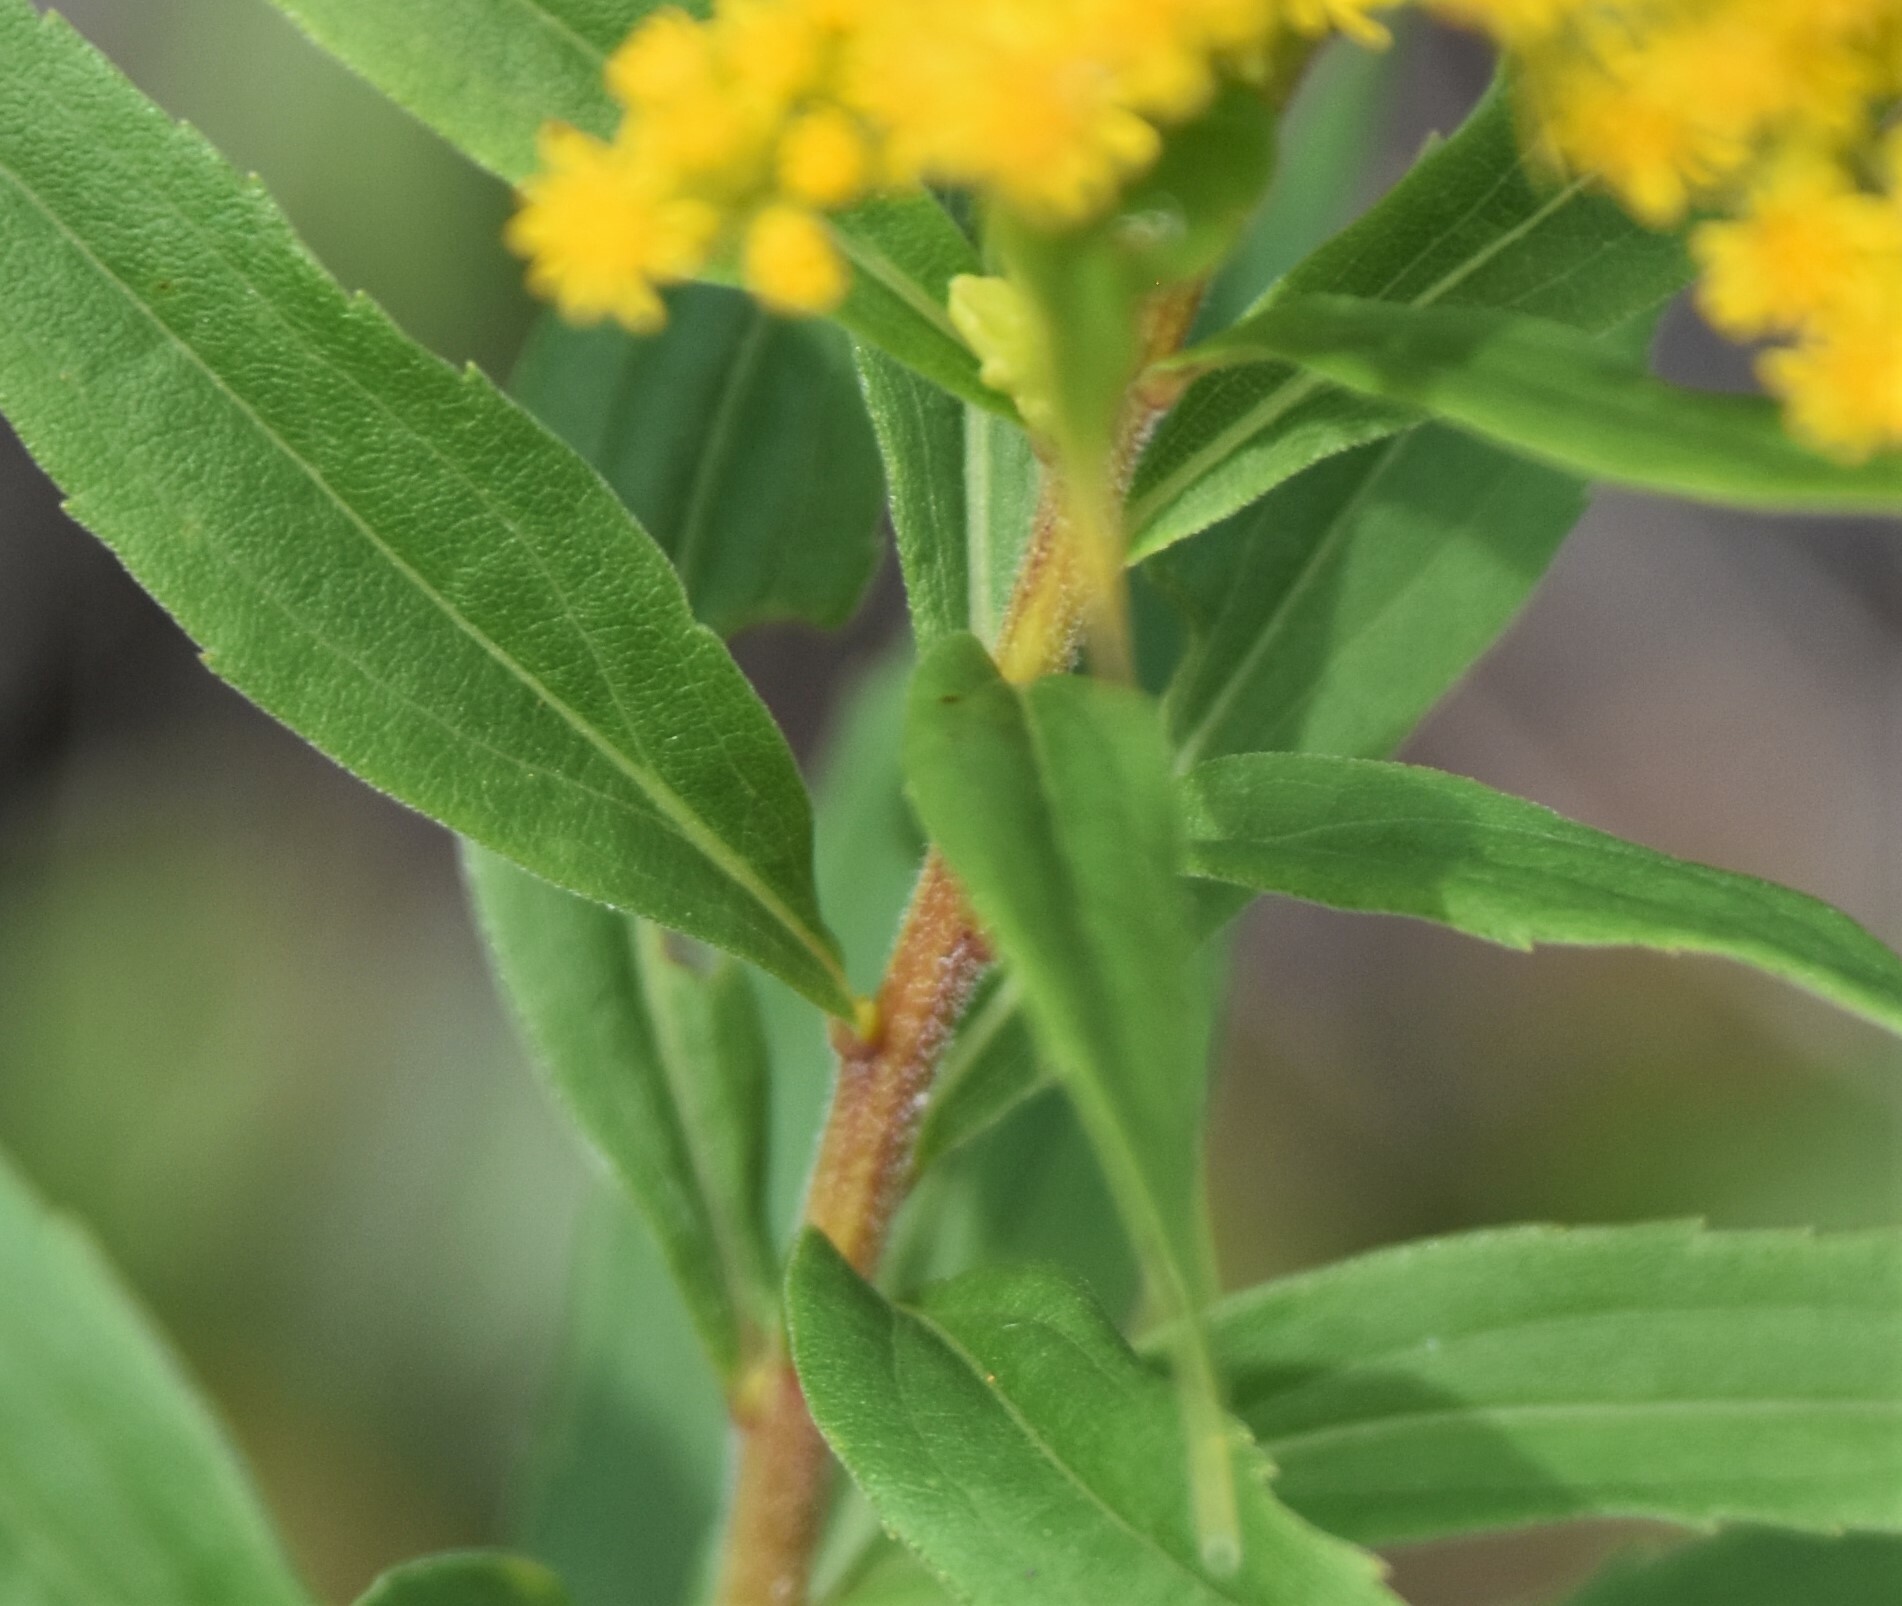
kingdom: Plantae
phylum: Tracheophyta
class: Magnoliopsida
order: Asterales
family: Asteraceae
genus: Solidago
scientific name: Solidago canadensis
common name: Canada goldenrod
